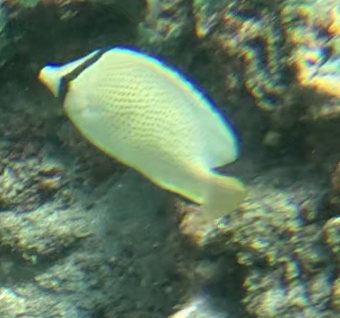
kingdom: Animalia
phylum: Chordata
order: Perciformes
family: Chaetodontidae
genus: Chaetodon
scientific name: Chaetodon citrinellus
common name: Speckled butterflyfish
